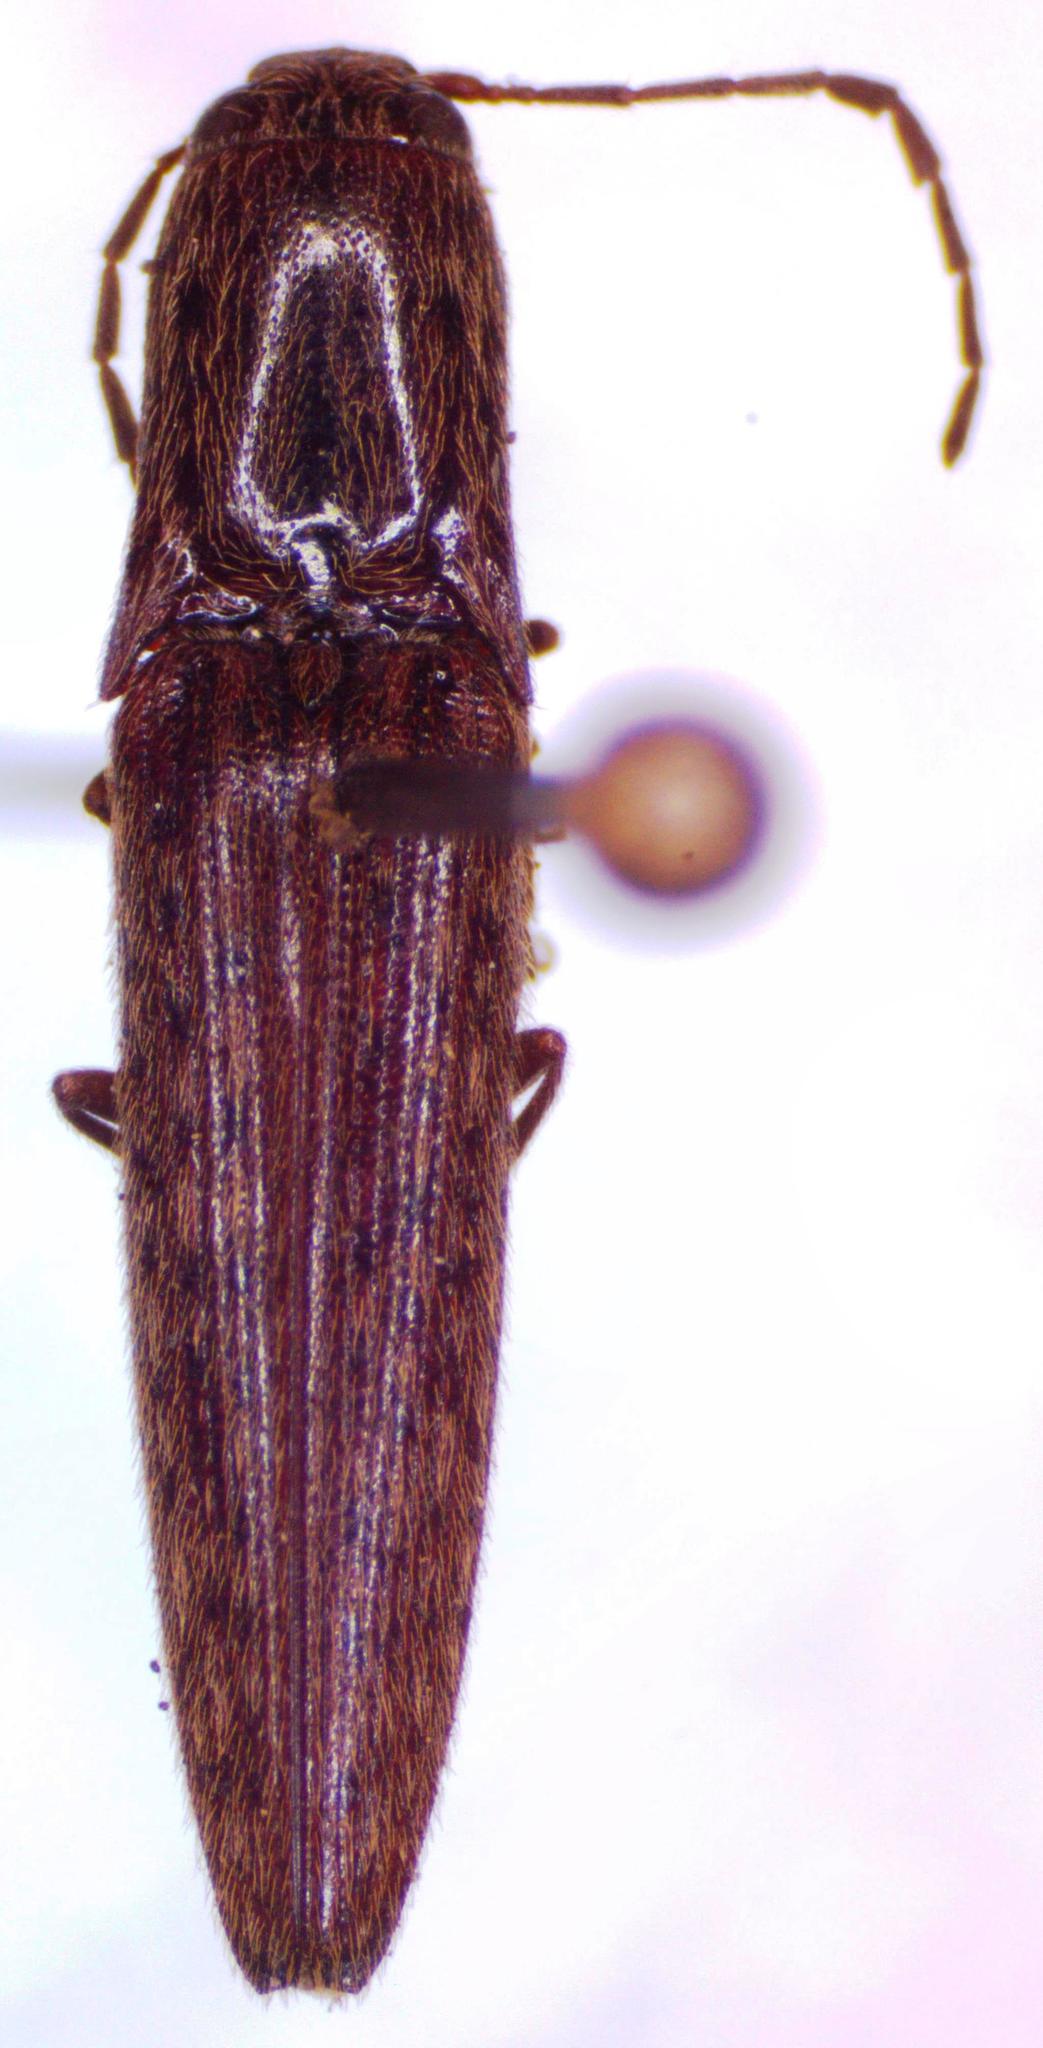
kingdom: Animalia
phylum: Arthropoda
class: Insecta
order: Coleoptera
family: Elateridae
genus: Psiloniscus
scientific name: Psiloniscus
